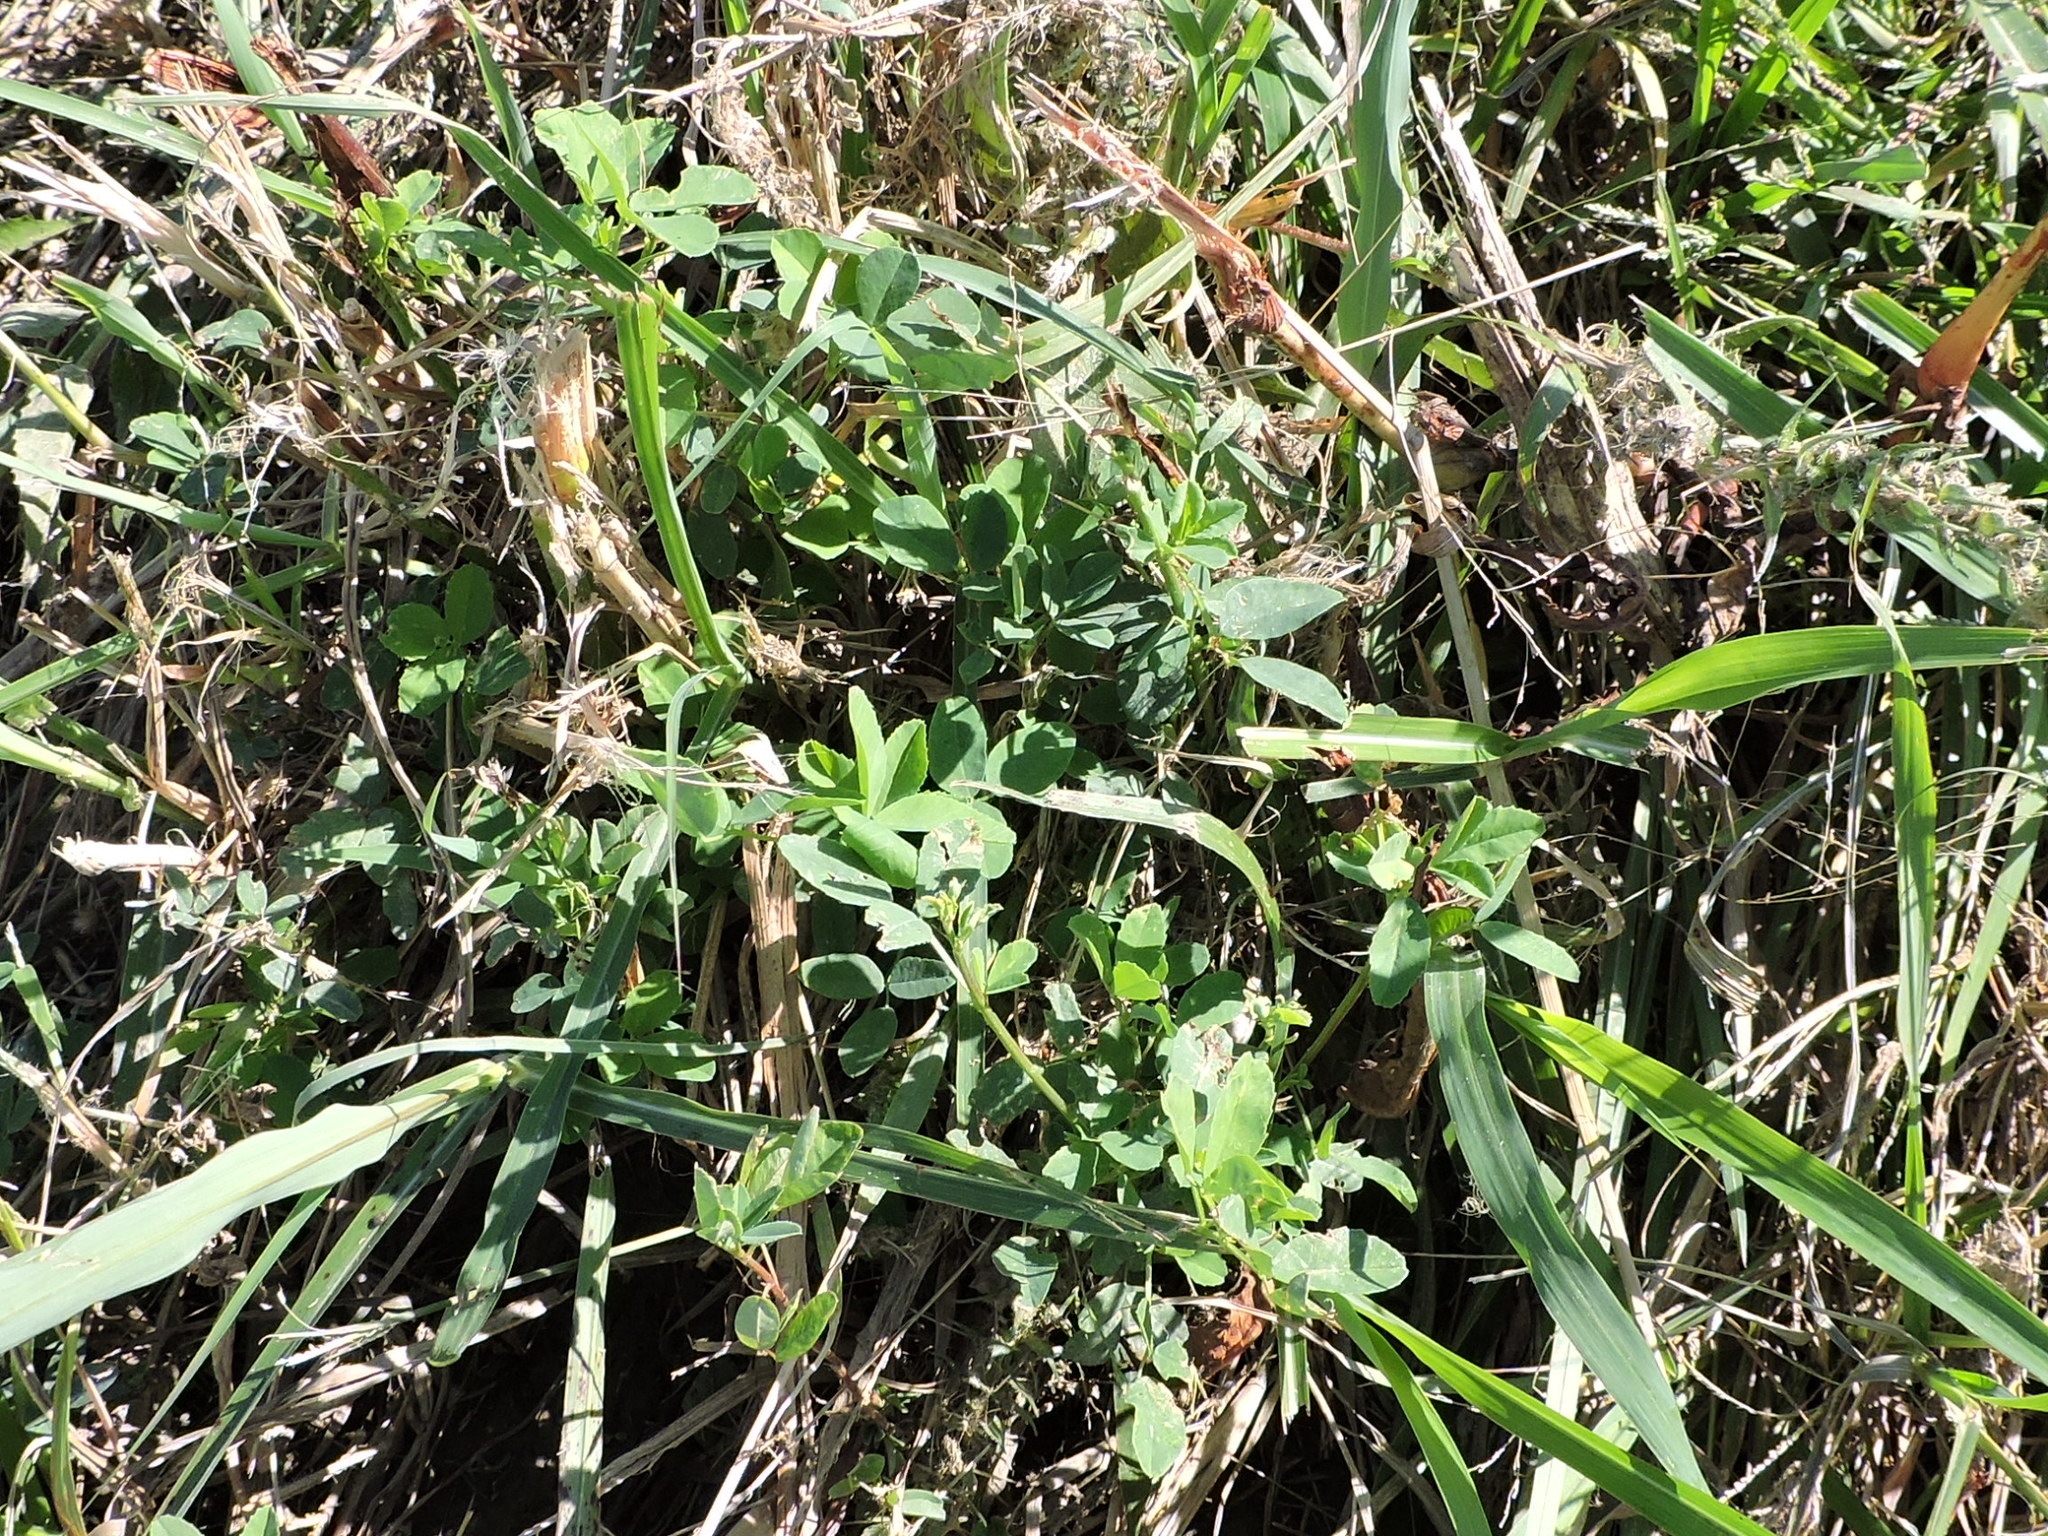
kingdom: Plantae
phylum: Tracheophyta
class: Magnoliopsida
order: Fabales
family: Fabaceae
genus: Melilotus
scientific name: Melilotus albus
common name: White melilot
